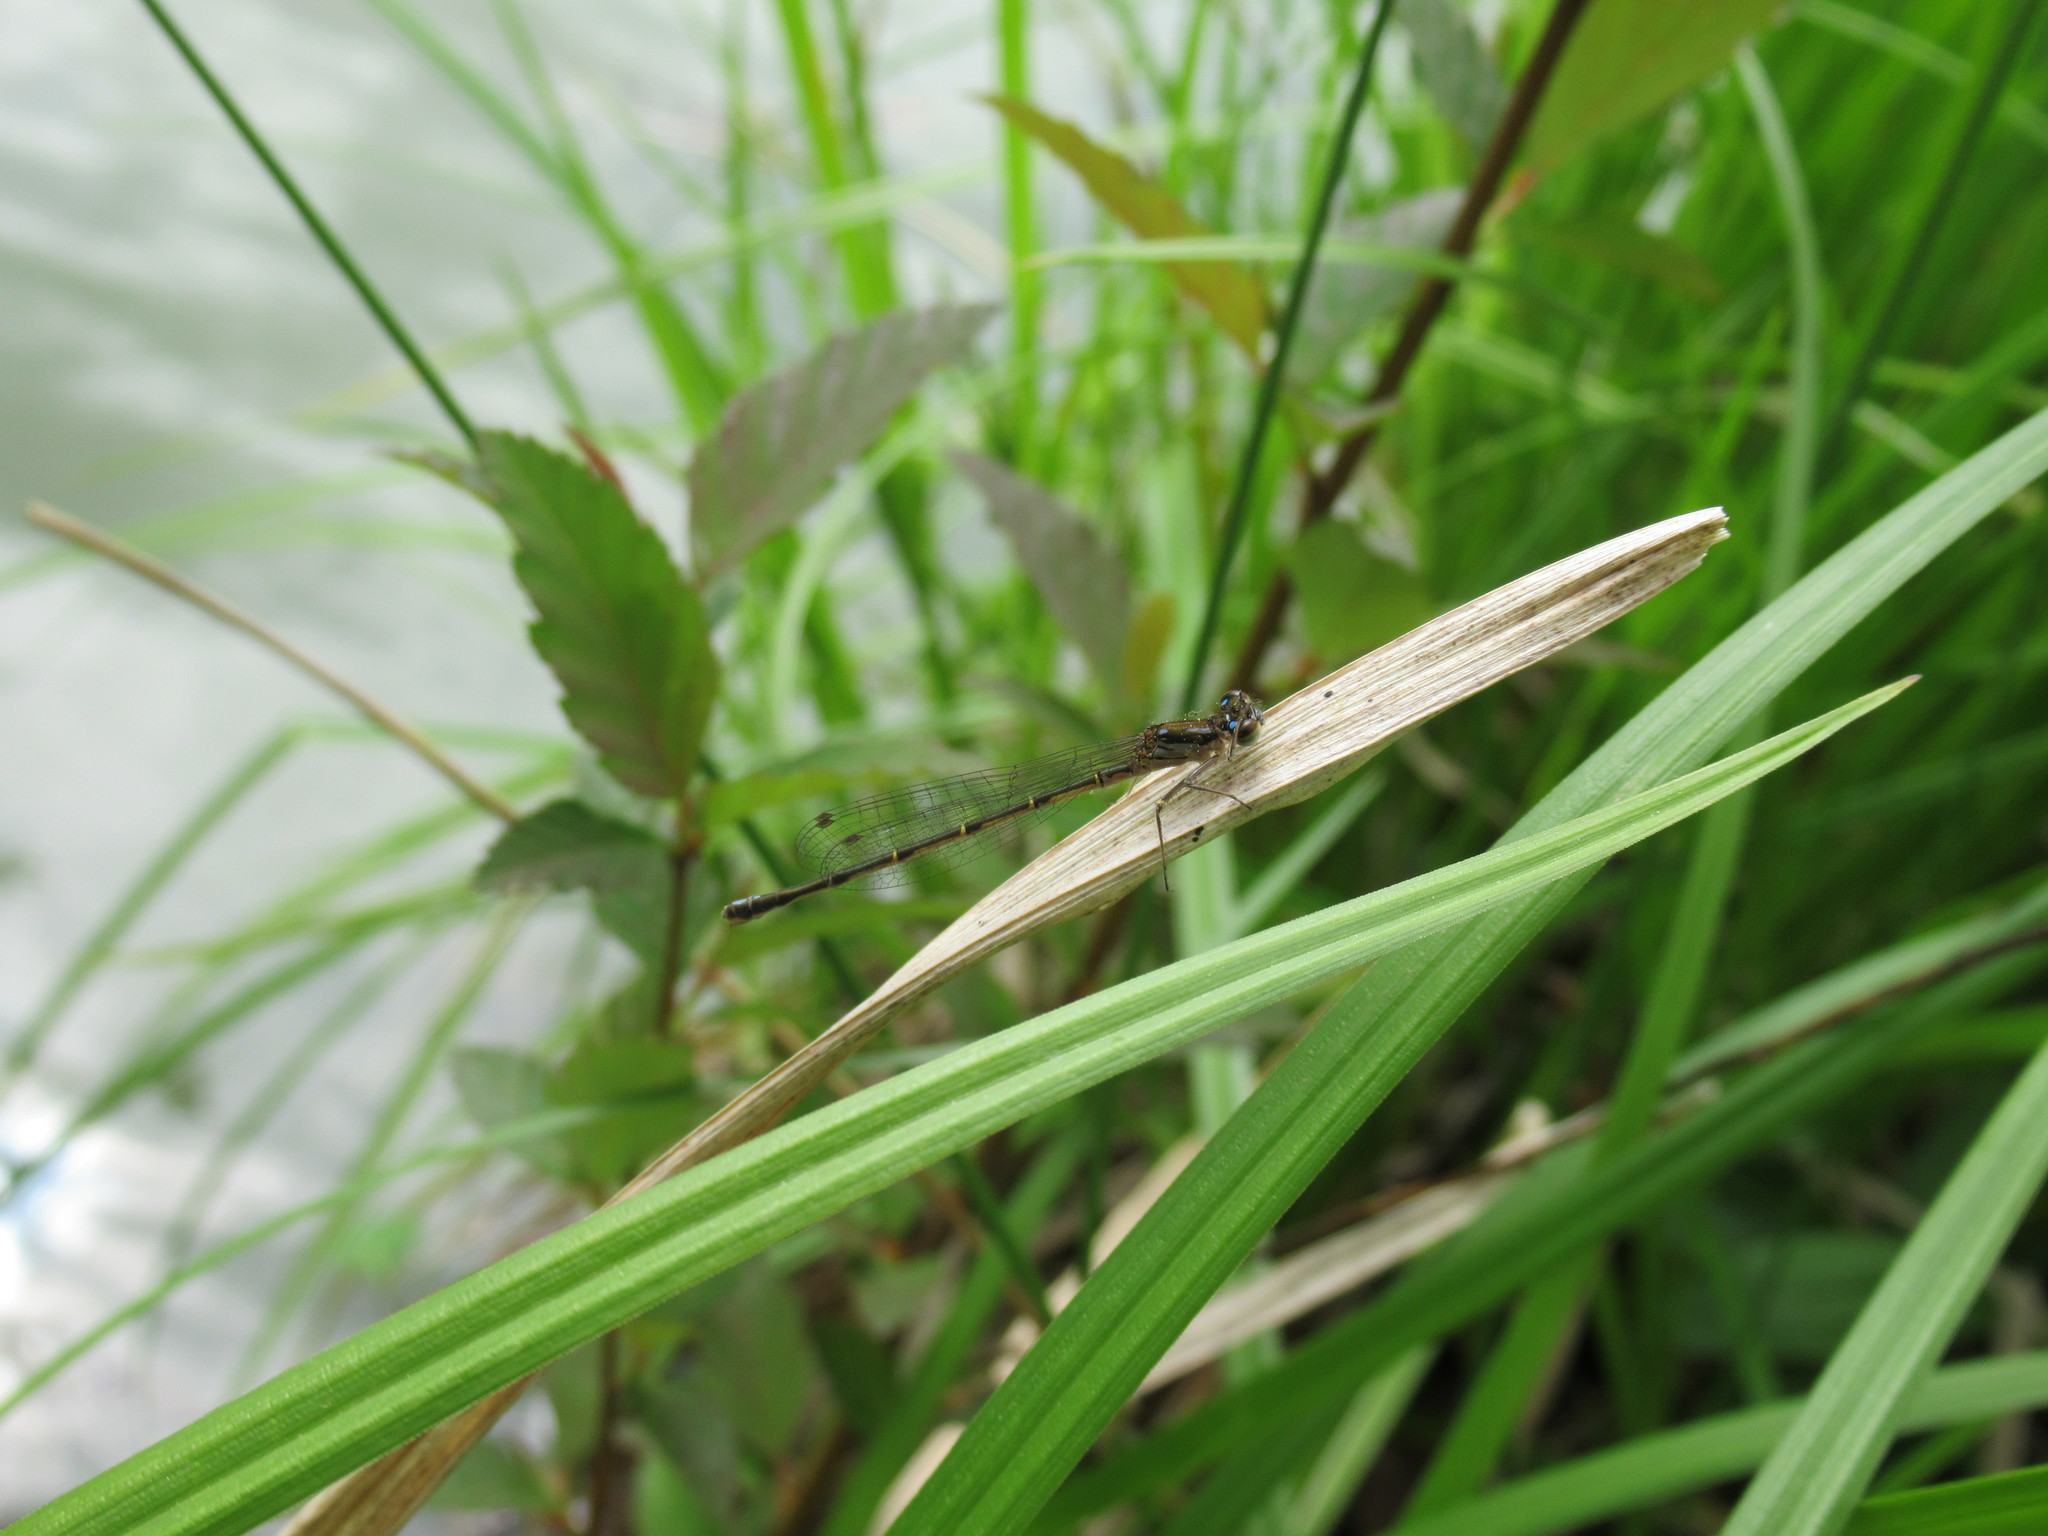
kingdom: Animalia
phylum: Arthropoda
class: Insecta
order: Odonata
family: Coenagrionidae
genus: Ischnura
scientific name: Ischnura posita
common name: Fragile forktail
